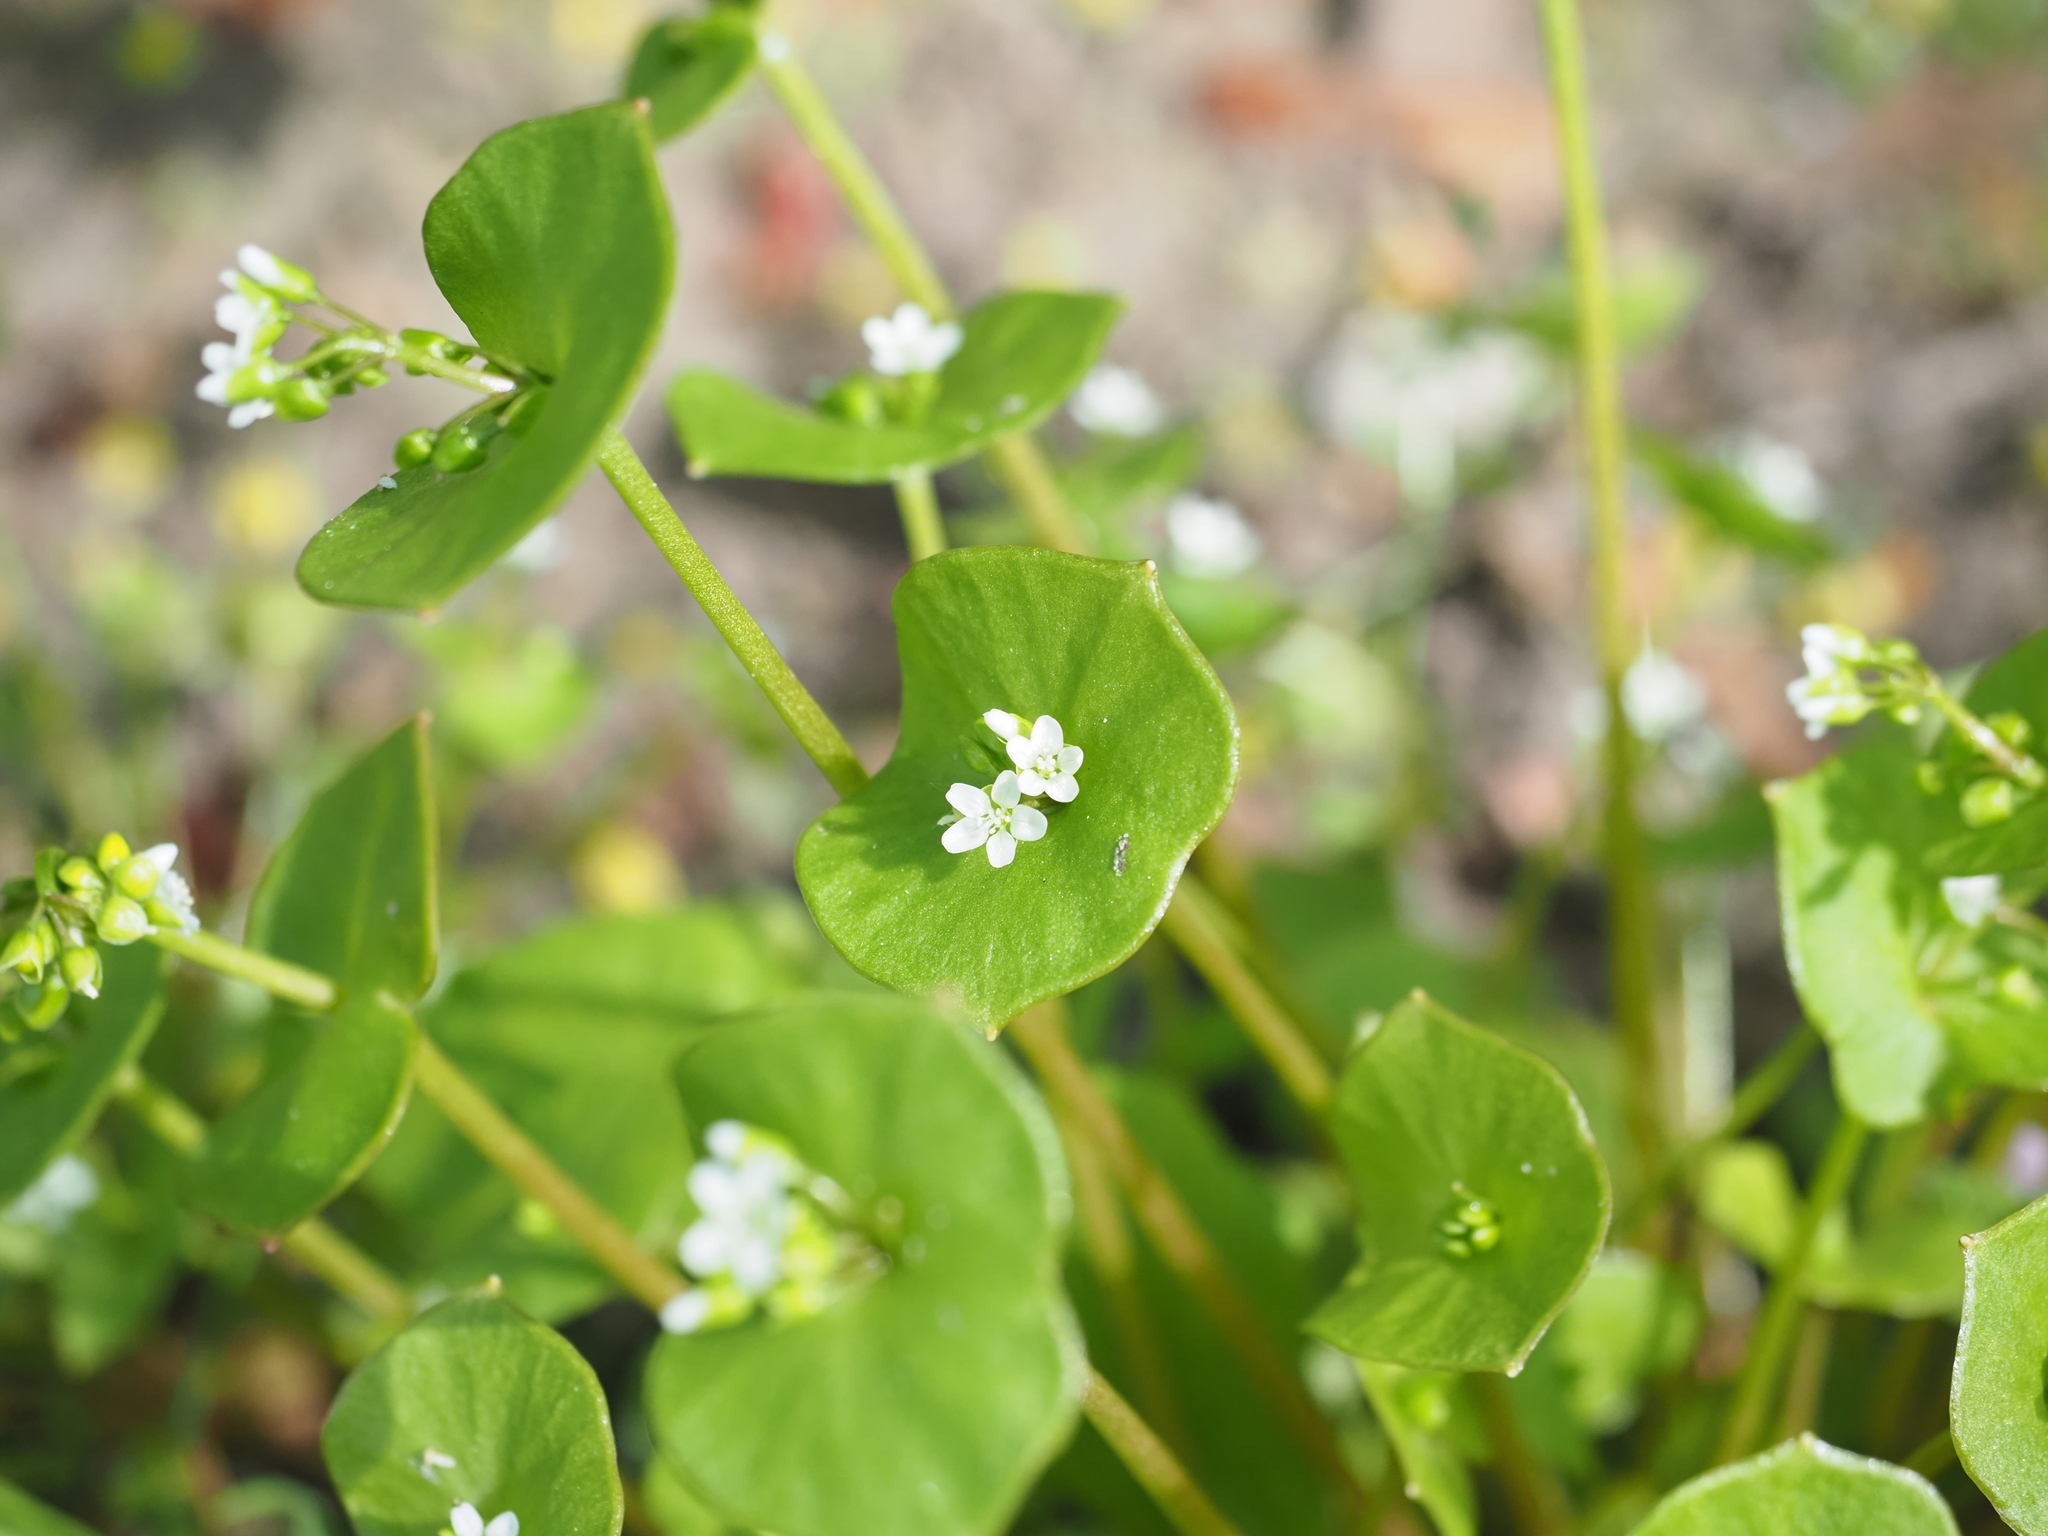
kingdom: Plantae
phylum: Tracheophyta
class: Magnoliopsida
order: Caryophyllales
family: Montiaceae
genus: Claytonia
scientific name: Claytonia perfoliata
